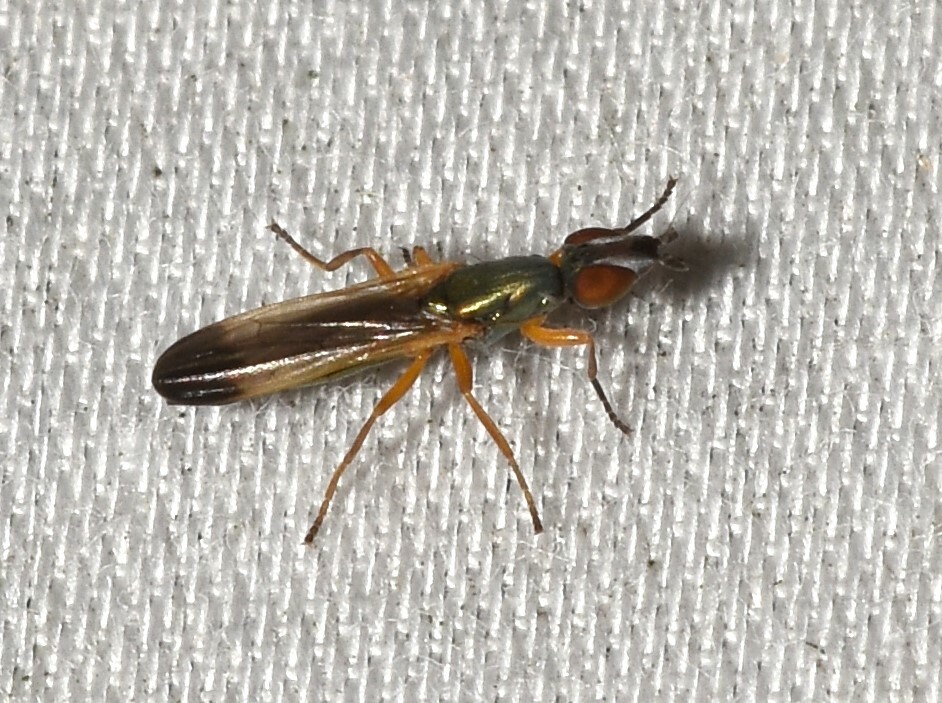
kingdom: Animalia
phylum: Arthropoda
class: Insecta
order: Diptera
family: Ulidiidae
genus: Eumetopiella
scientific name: Eumetopiella rufipes
